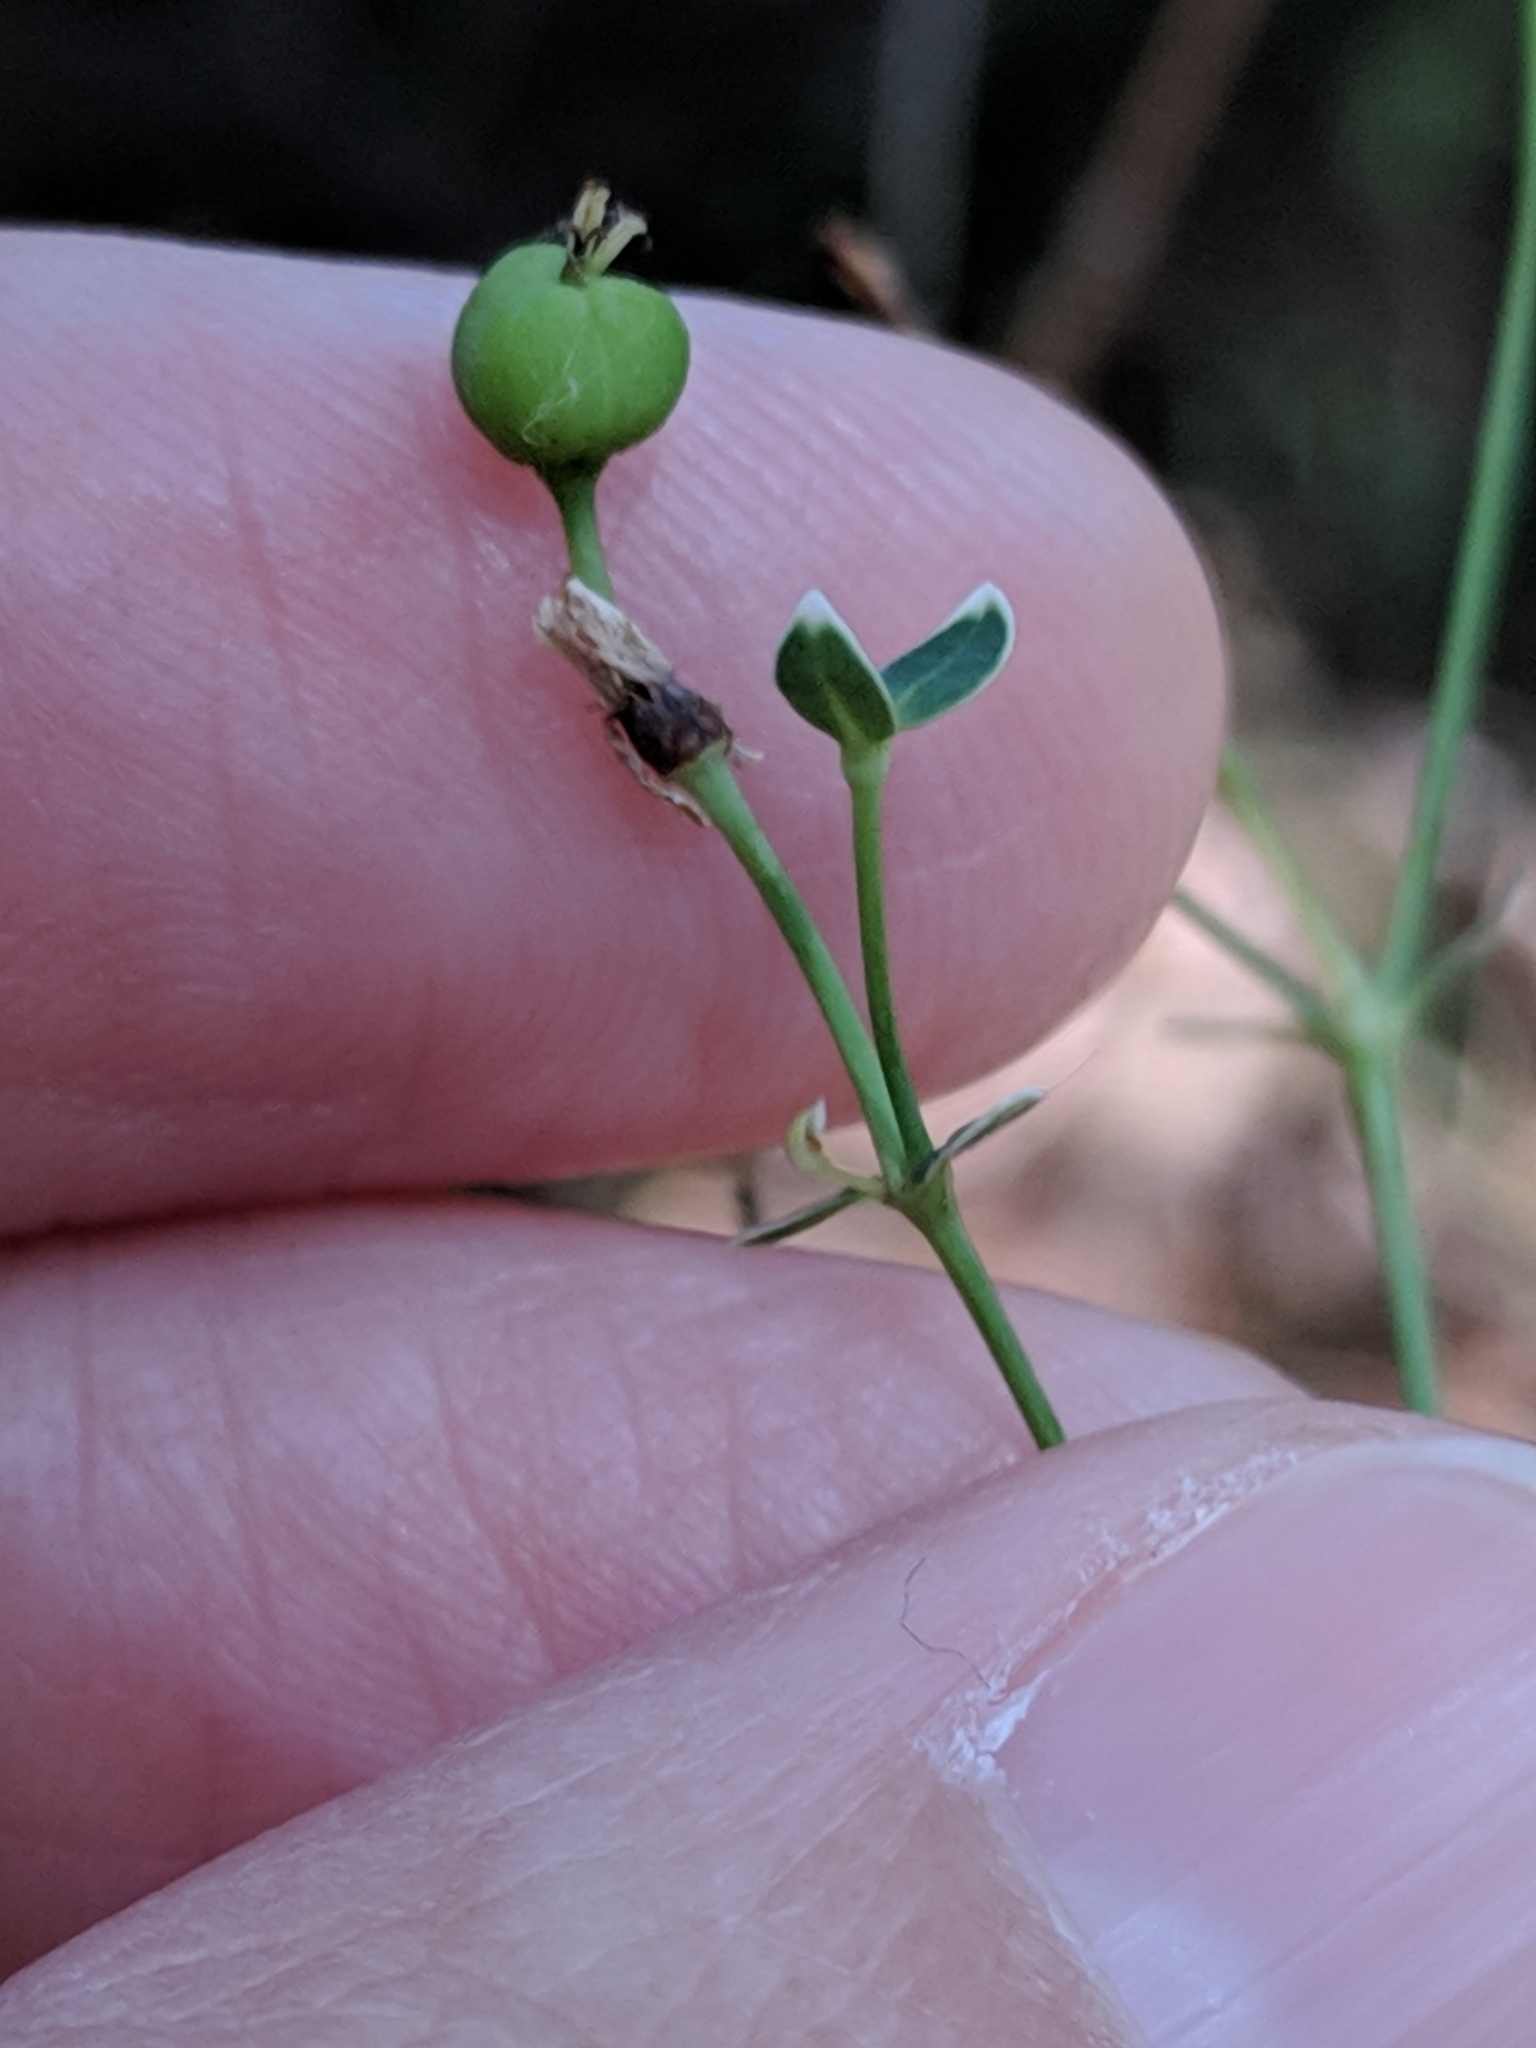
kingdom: Plantae
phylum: Tracheophyta
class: Magnoliopsida
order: Malpighiales
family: Euphorbiaceae
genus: Euphorbia
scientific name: Euphorbia corollata
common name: Flowering spurge
